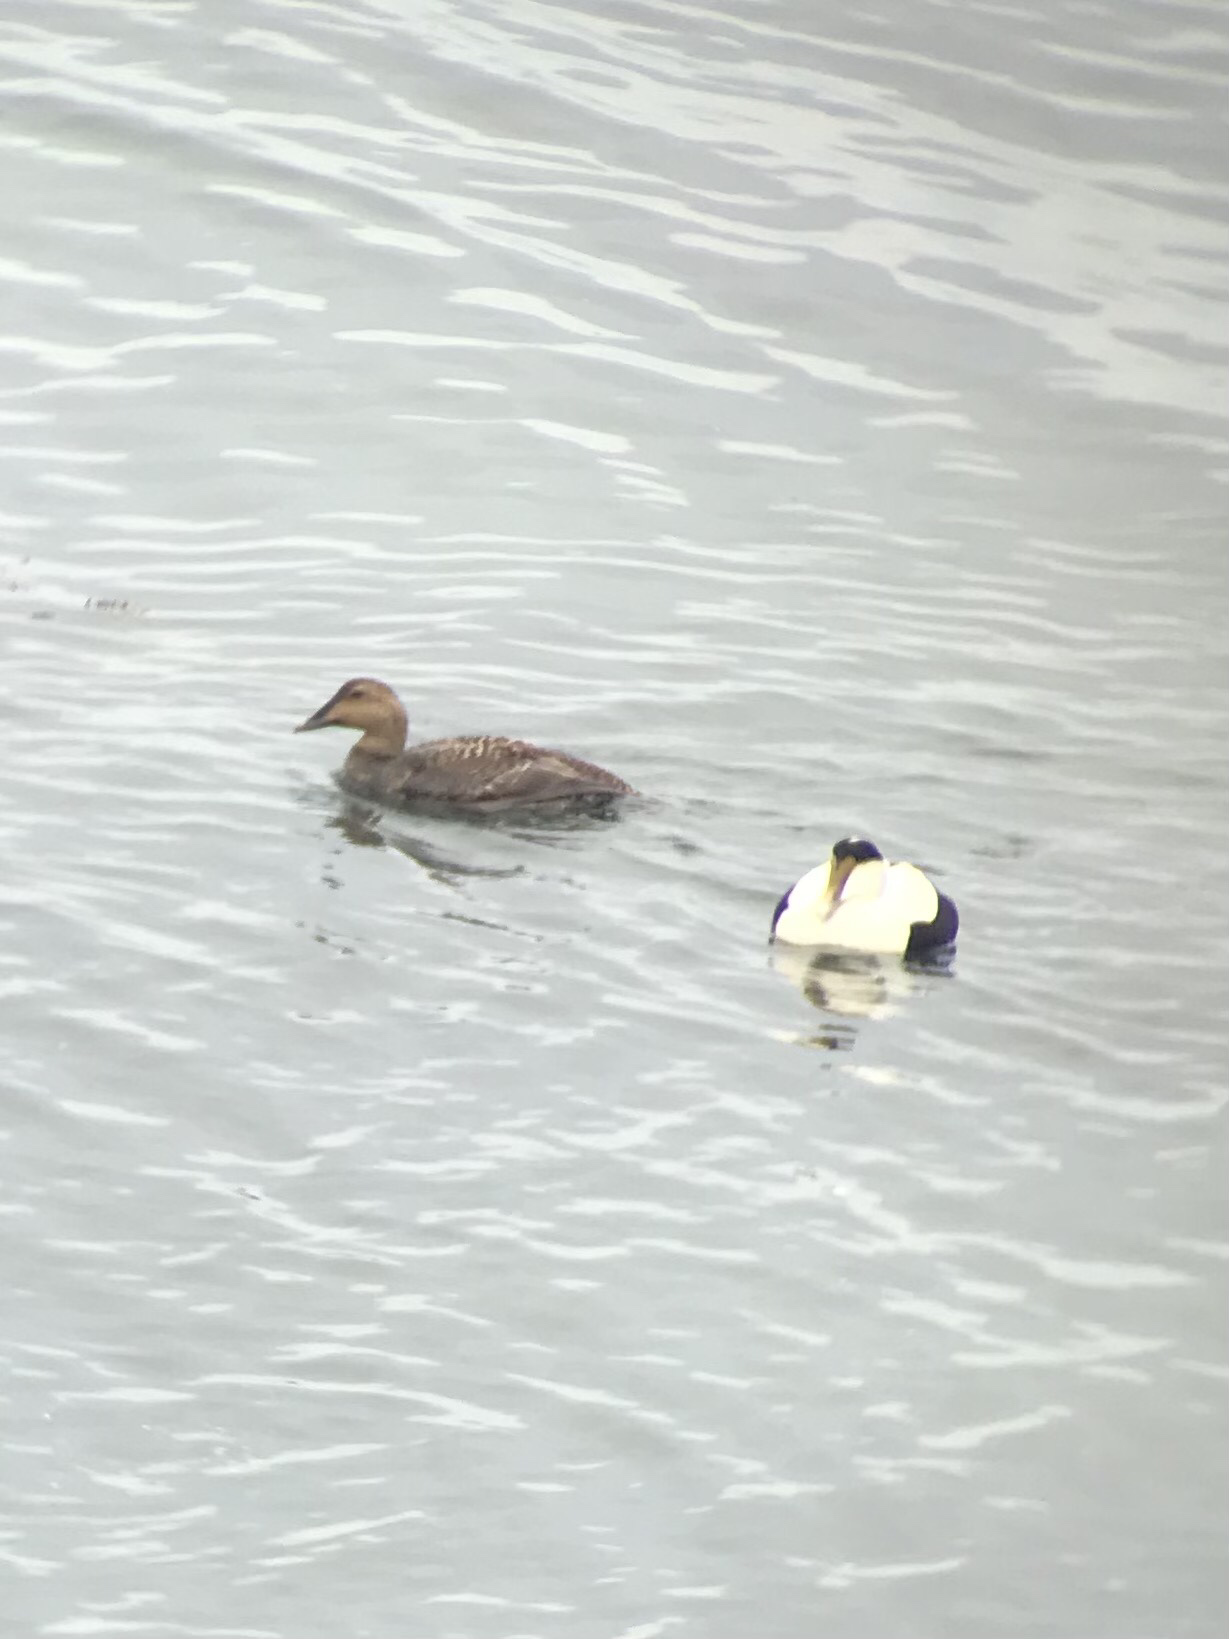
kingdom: Animalia
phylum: Chordata
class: Aves
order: Anseriformes
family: Anatidae
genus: Somateria
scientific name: Somateria mollissima
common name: Common eider
